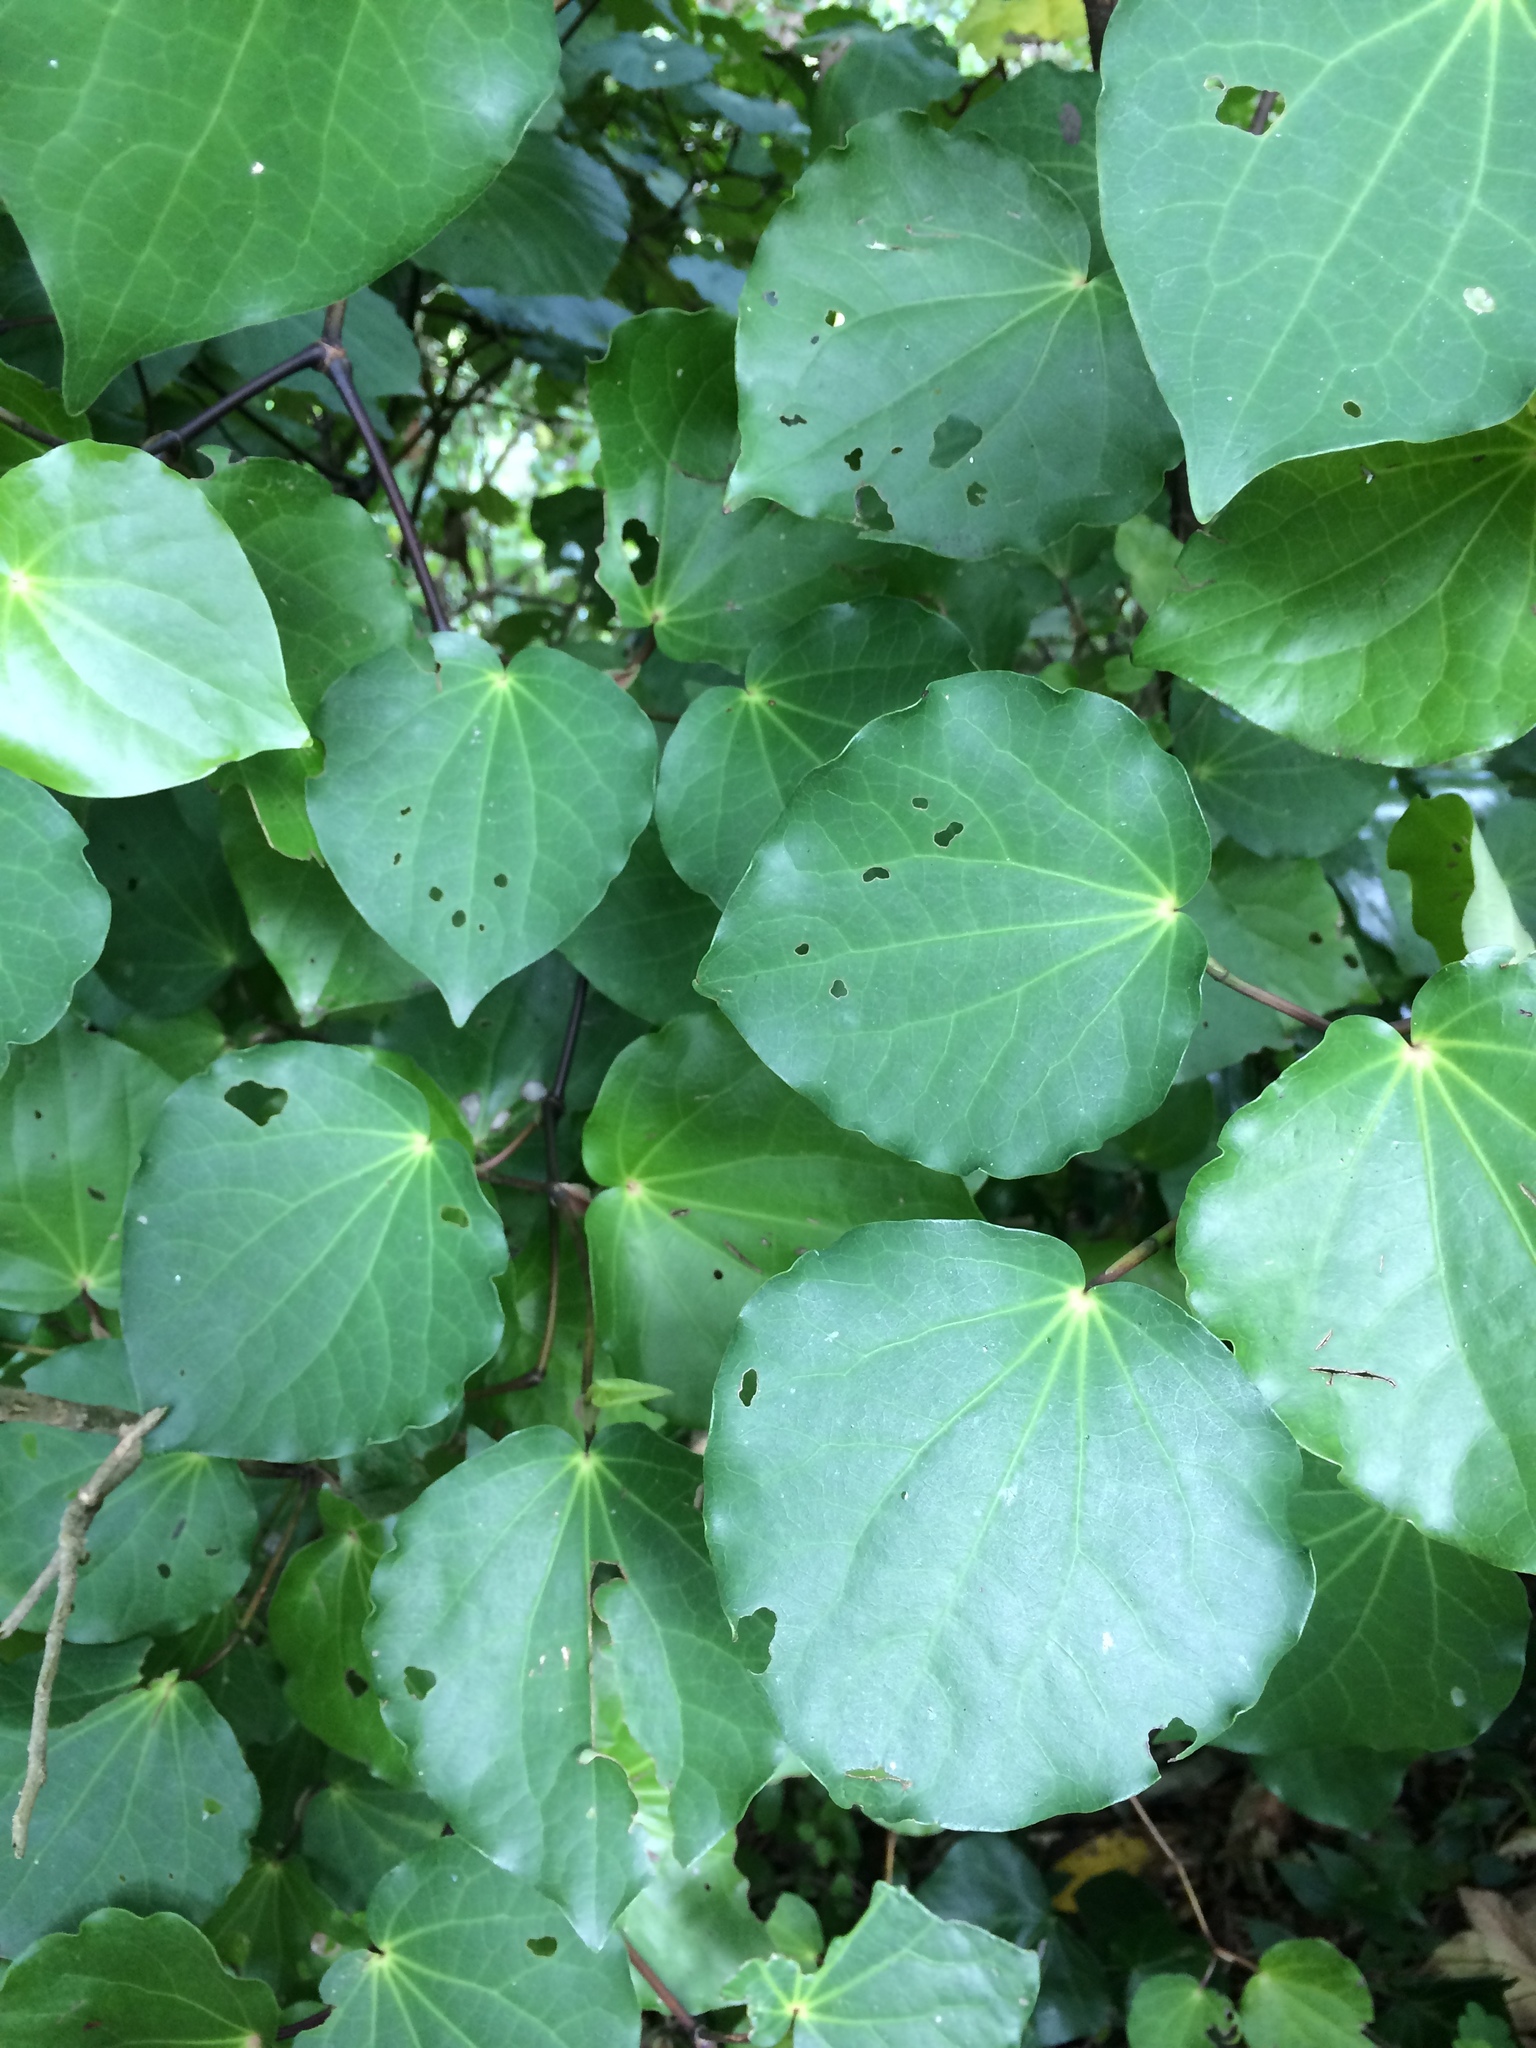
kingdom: Plantae
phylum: Tracheophyta
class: Magnoliopsida
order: Piperales
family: Piperaceae
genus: Macropiper
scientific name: Macropiper excelsum
